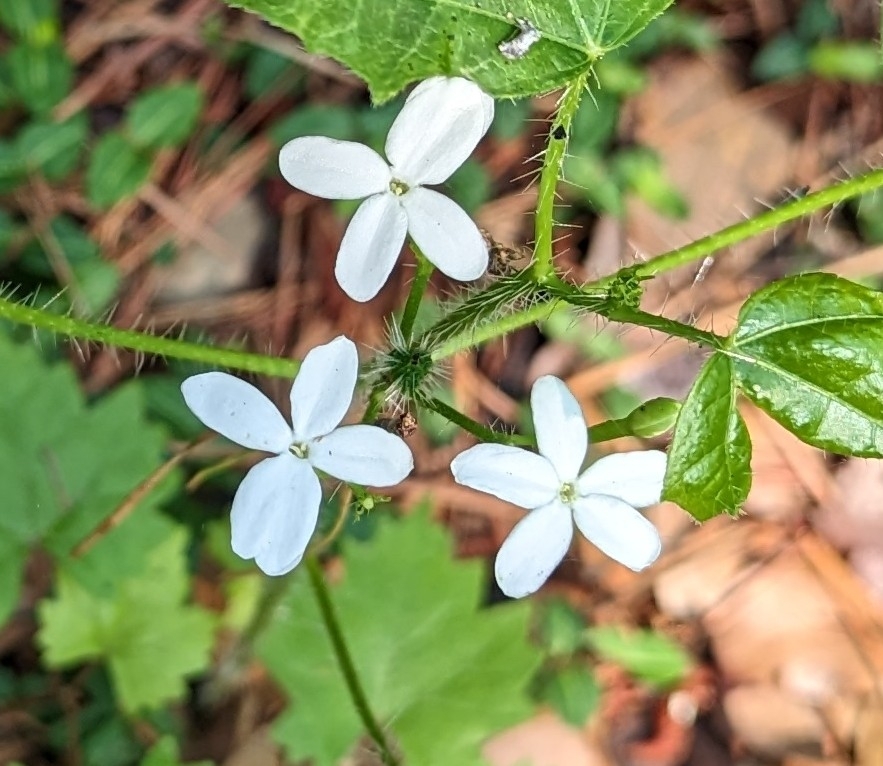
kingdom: Plantae
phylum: Tracheophyta
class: Magnoliopsida
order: Malpighiales
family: Euphorbiaceae
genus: Cnidoscolus
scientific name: Cnidoscolus stimulosus
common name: Bull-nettle
